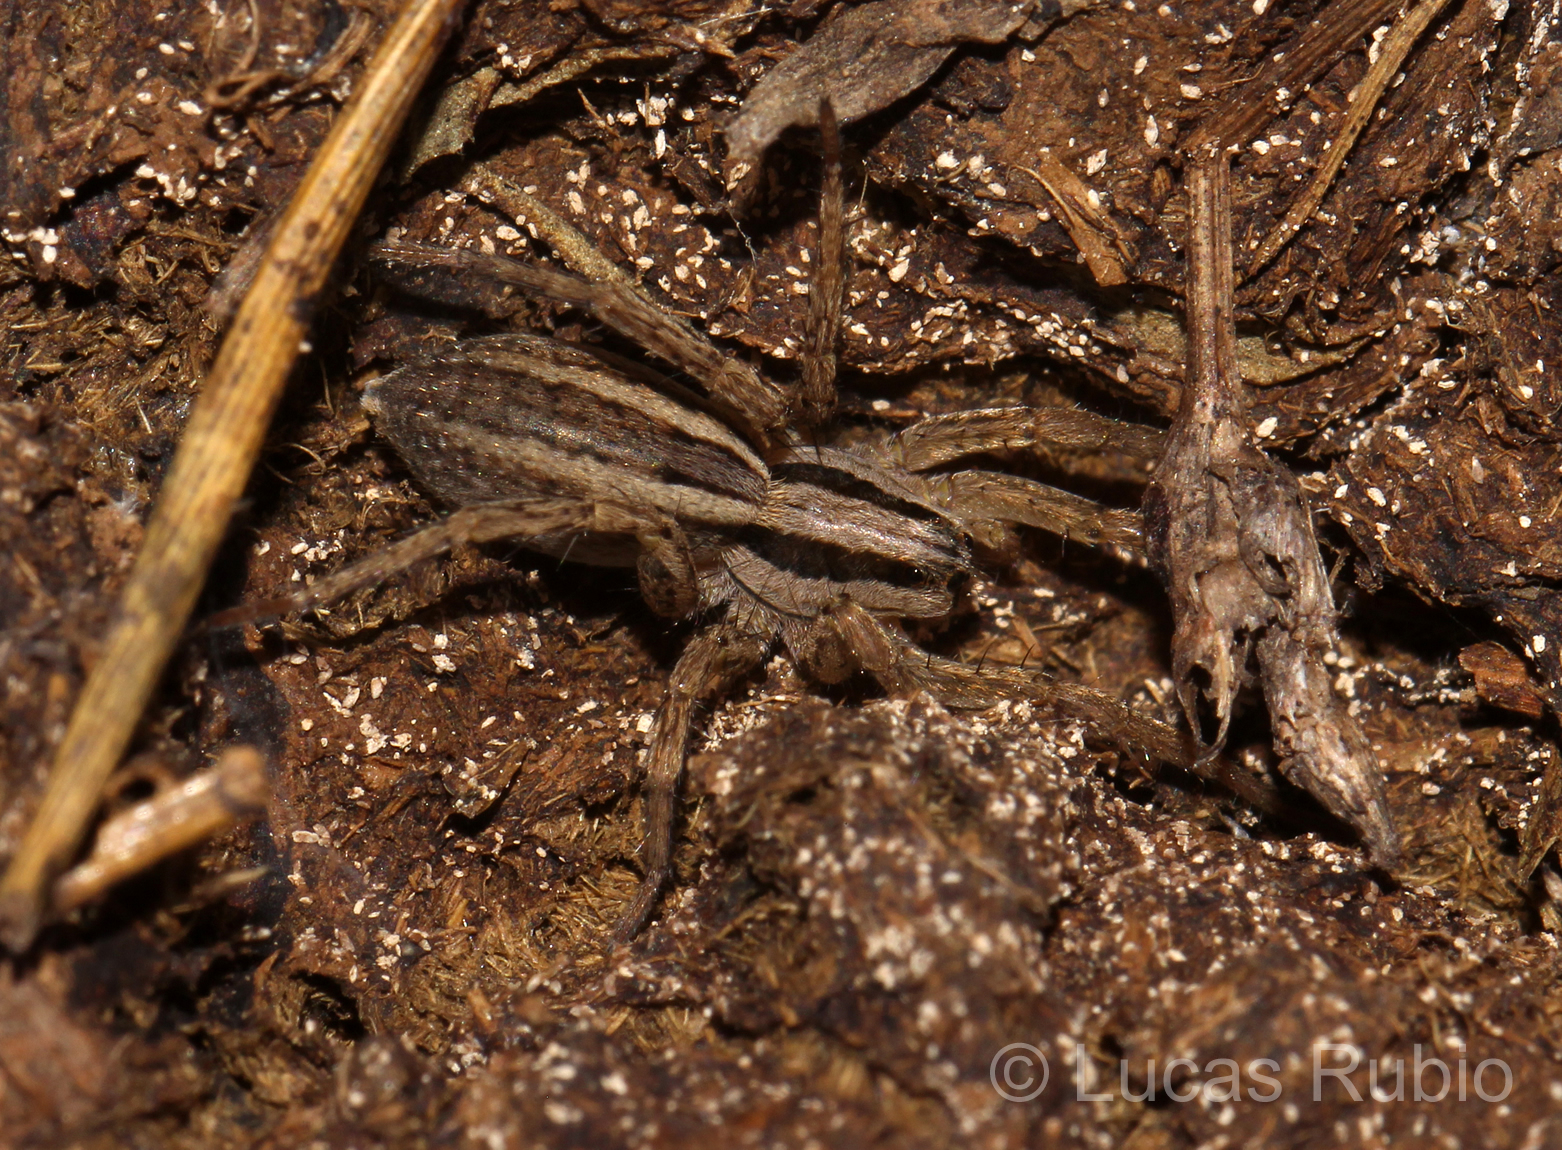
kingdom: Animalia
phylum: Arthropoda
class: Arachnida
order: Araneae
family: Lycosidae
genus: Hogna
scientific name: Hogna bivittata
